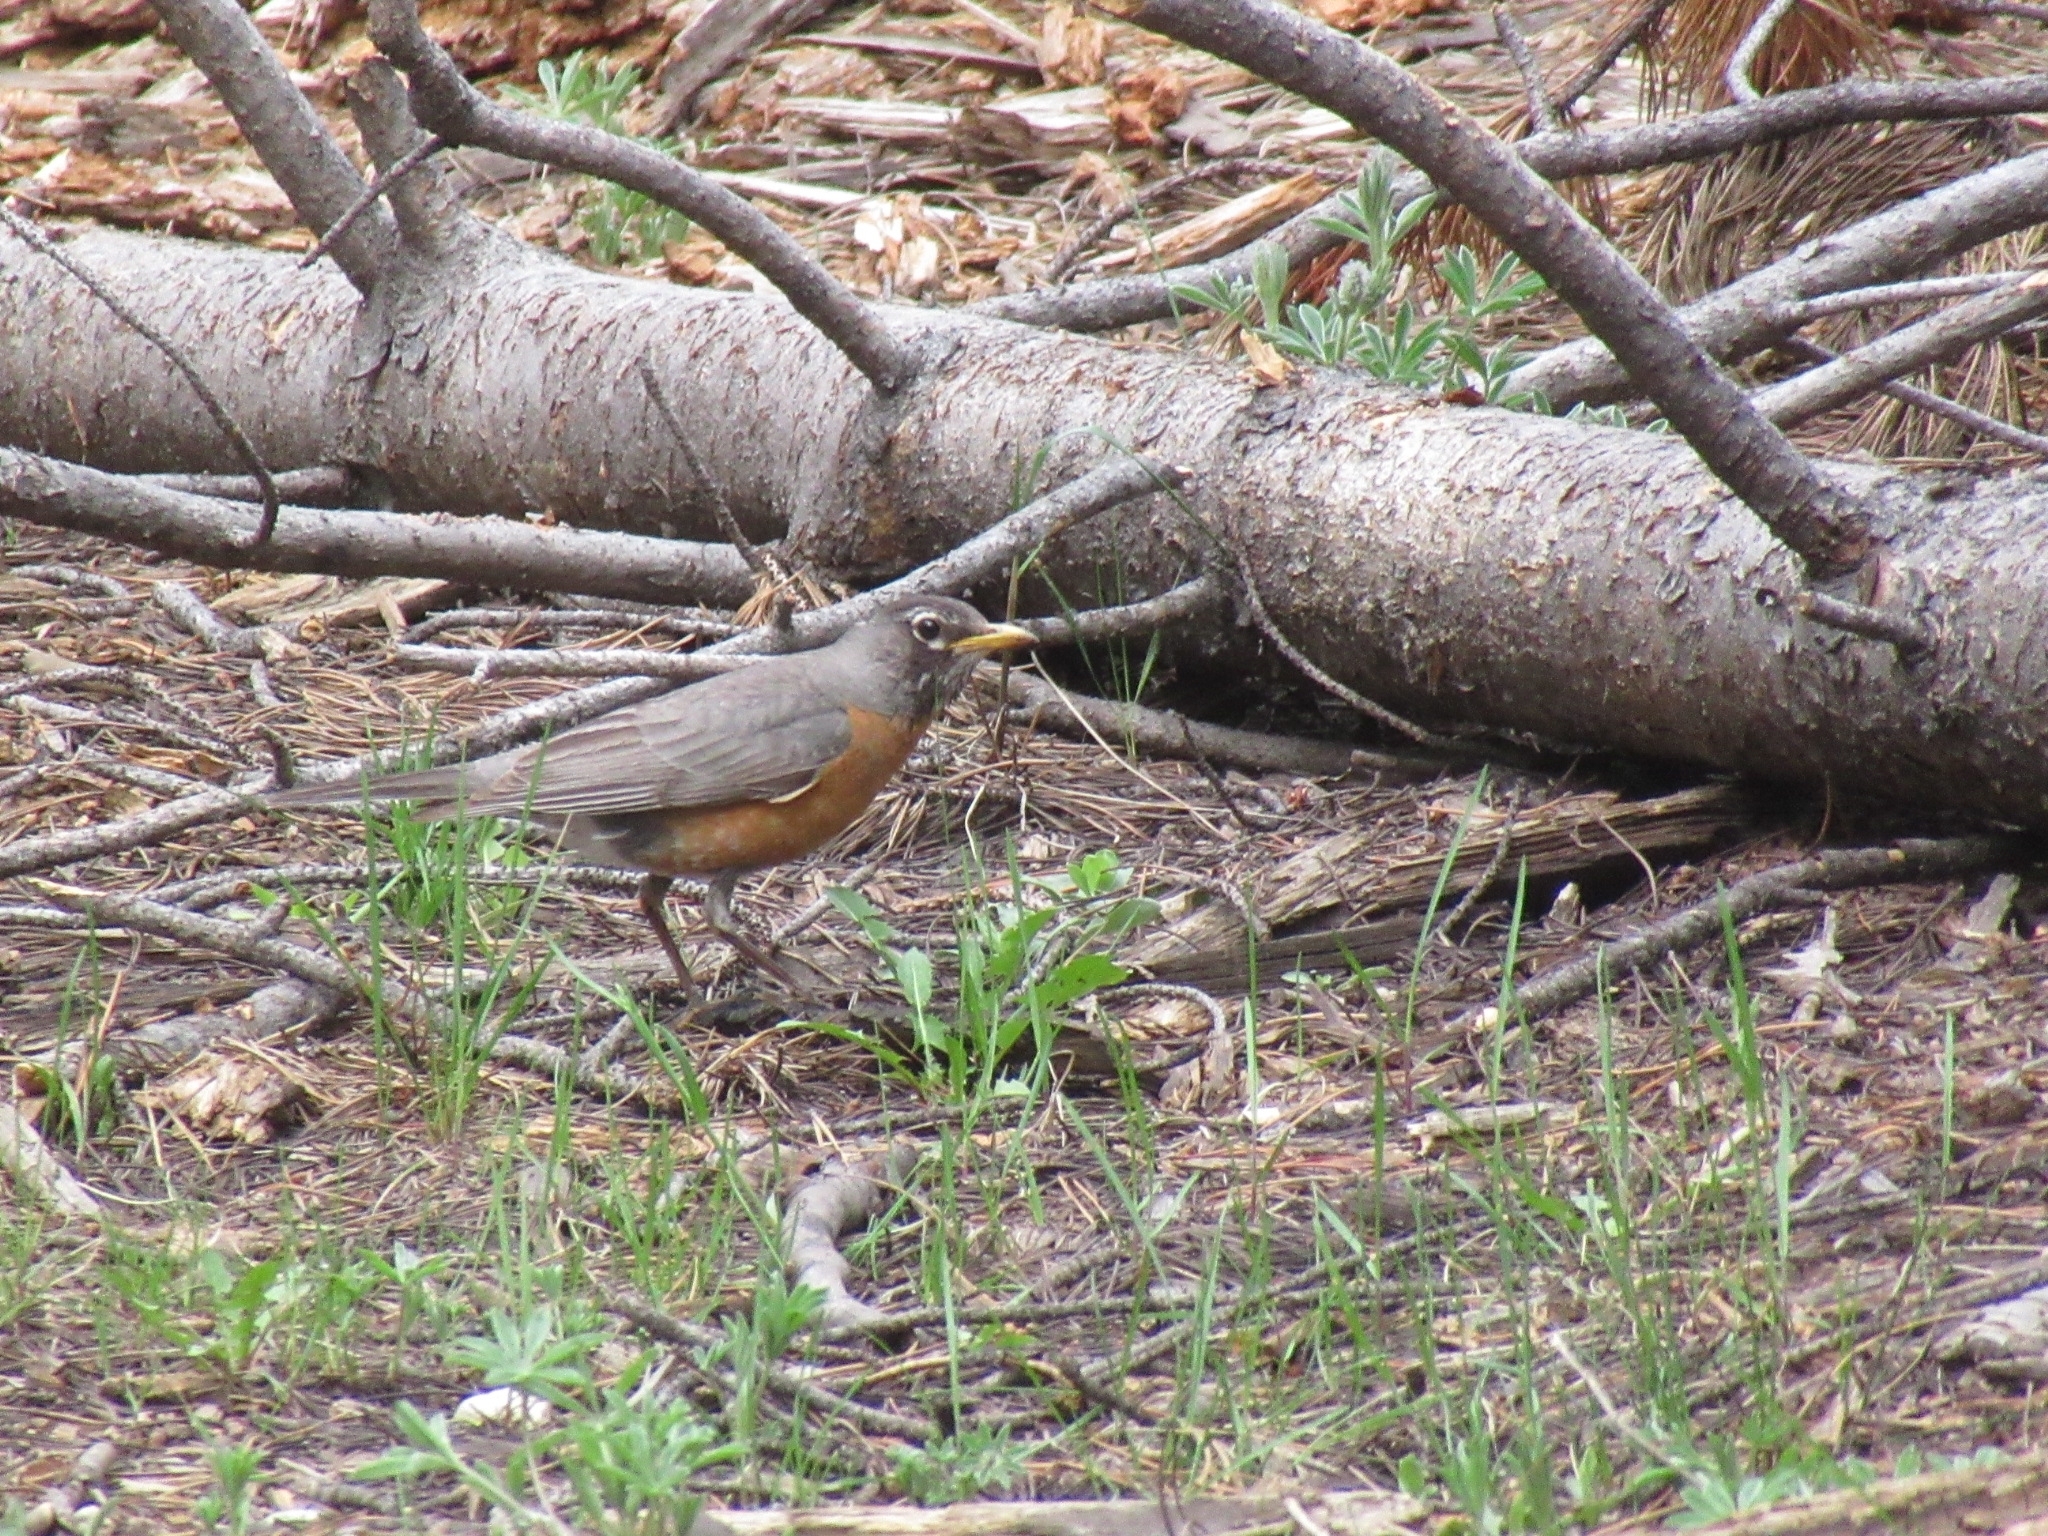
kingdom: Animalia
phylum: Chordata
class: Aves
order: Passeriformes
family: Turdidae
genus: Turdus
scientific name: Turdus migratorius
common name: American robin
